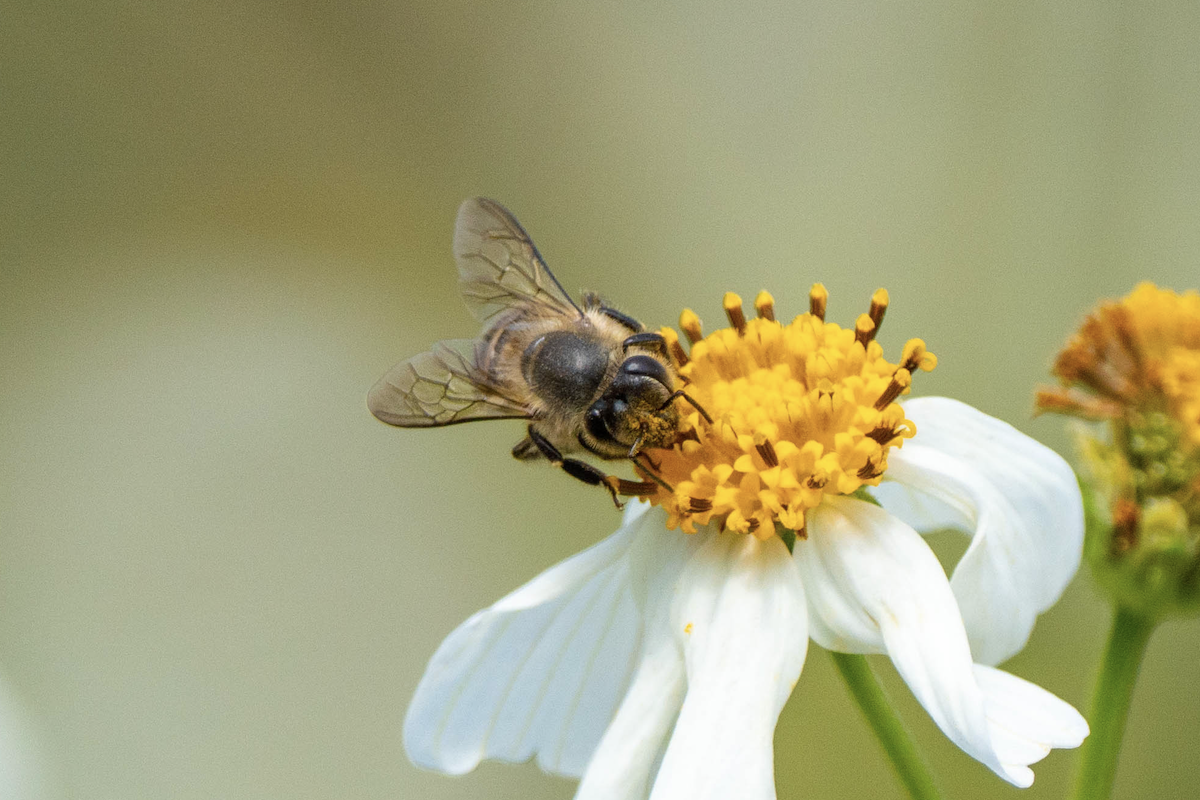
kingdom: Animalia
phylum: Arthropoda
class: Insecta
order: Hymenoptera
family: Apidae
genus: Apis
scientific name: Apis cerana
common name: Honey bee
